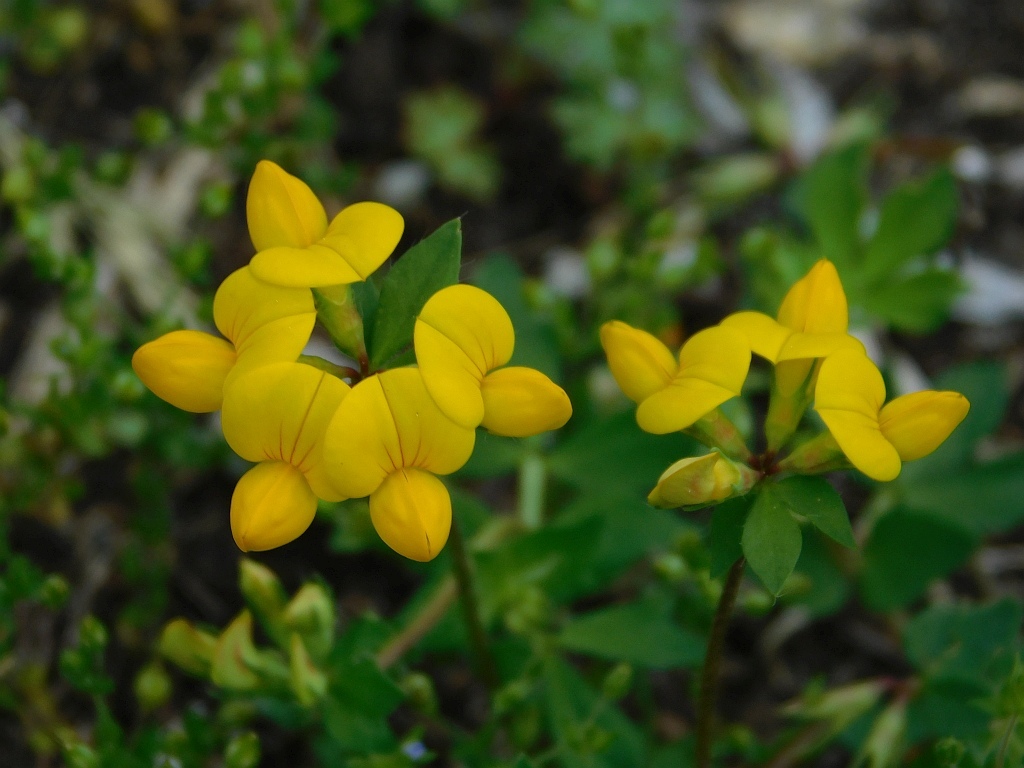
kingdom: Plantae
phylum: Tracheophyta
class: Magnoliopsida
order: Fabales
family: Fabaceae
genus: Lotus
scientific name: Lotus corniculatus
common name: Common bird's-foot-trefoil
